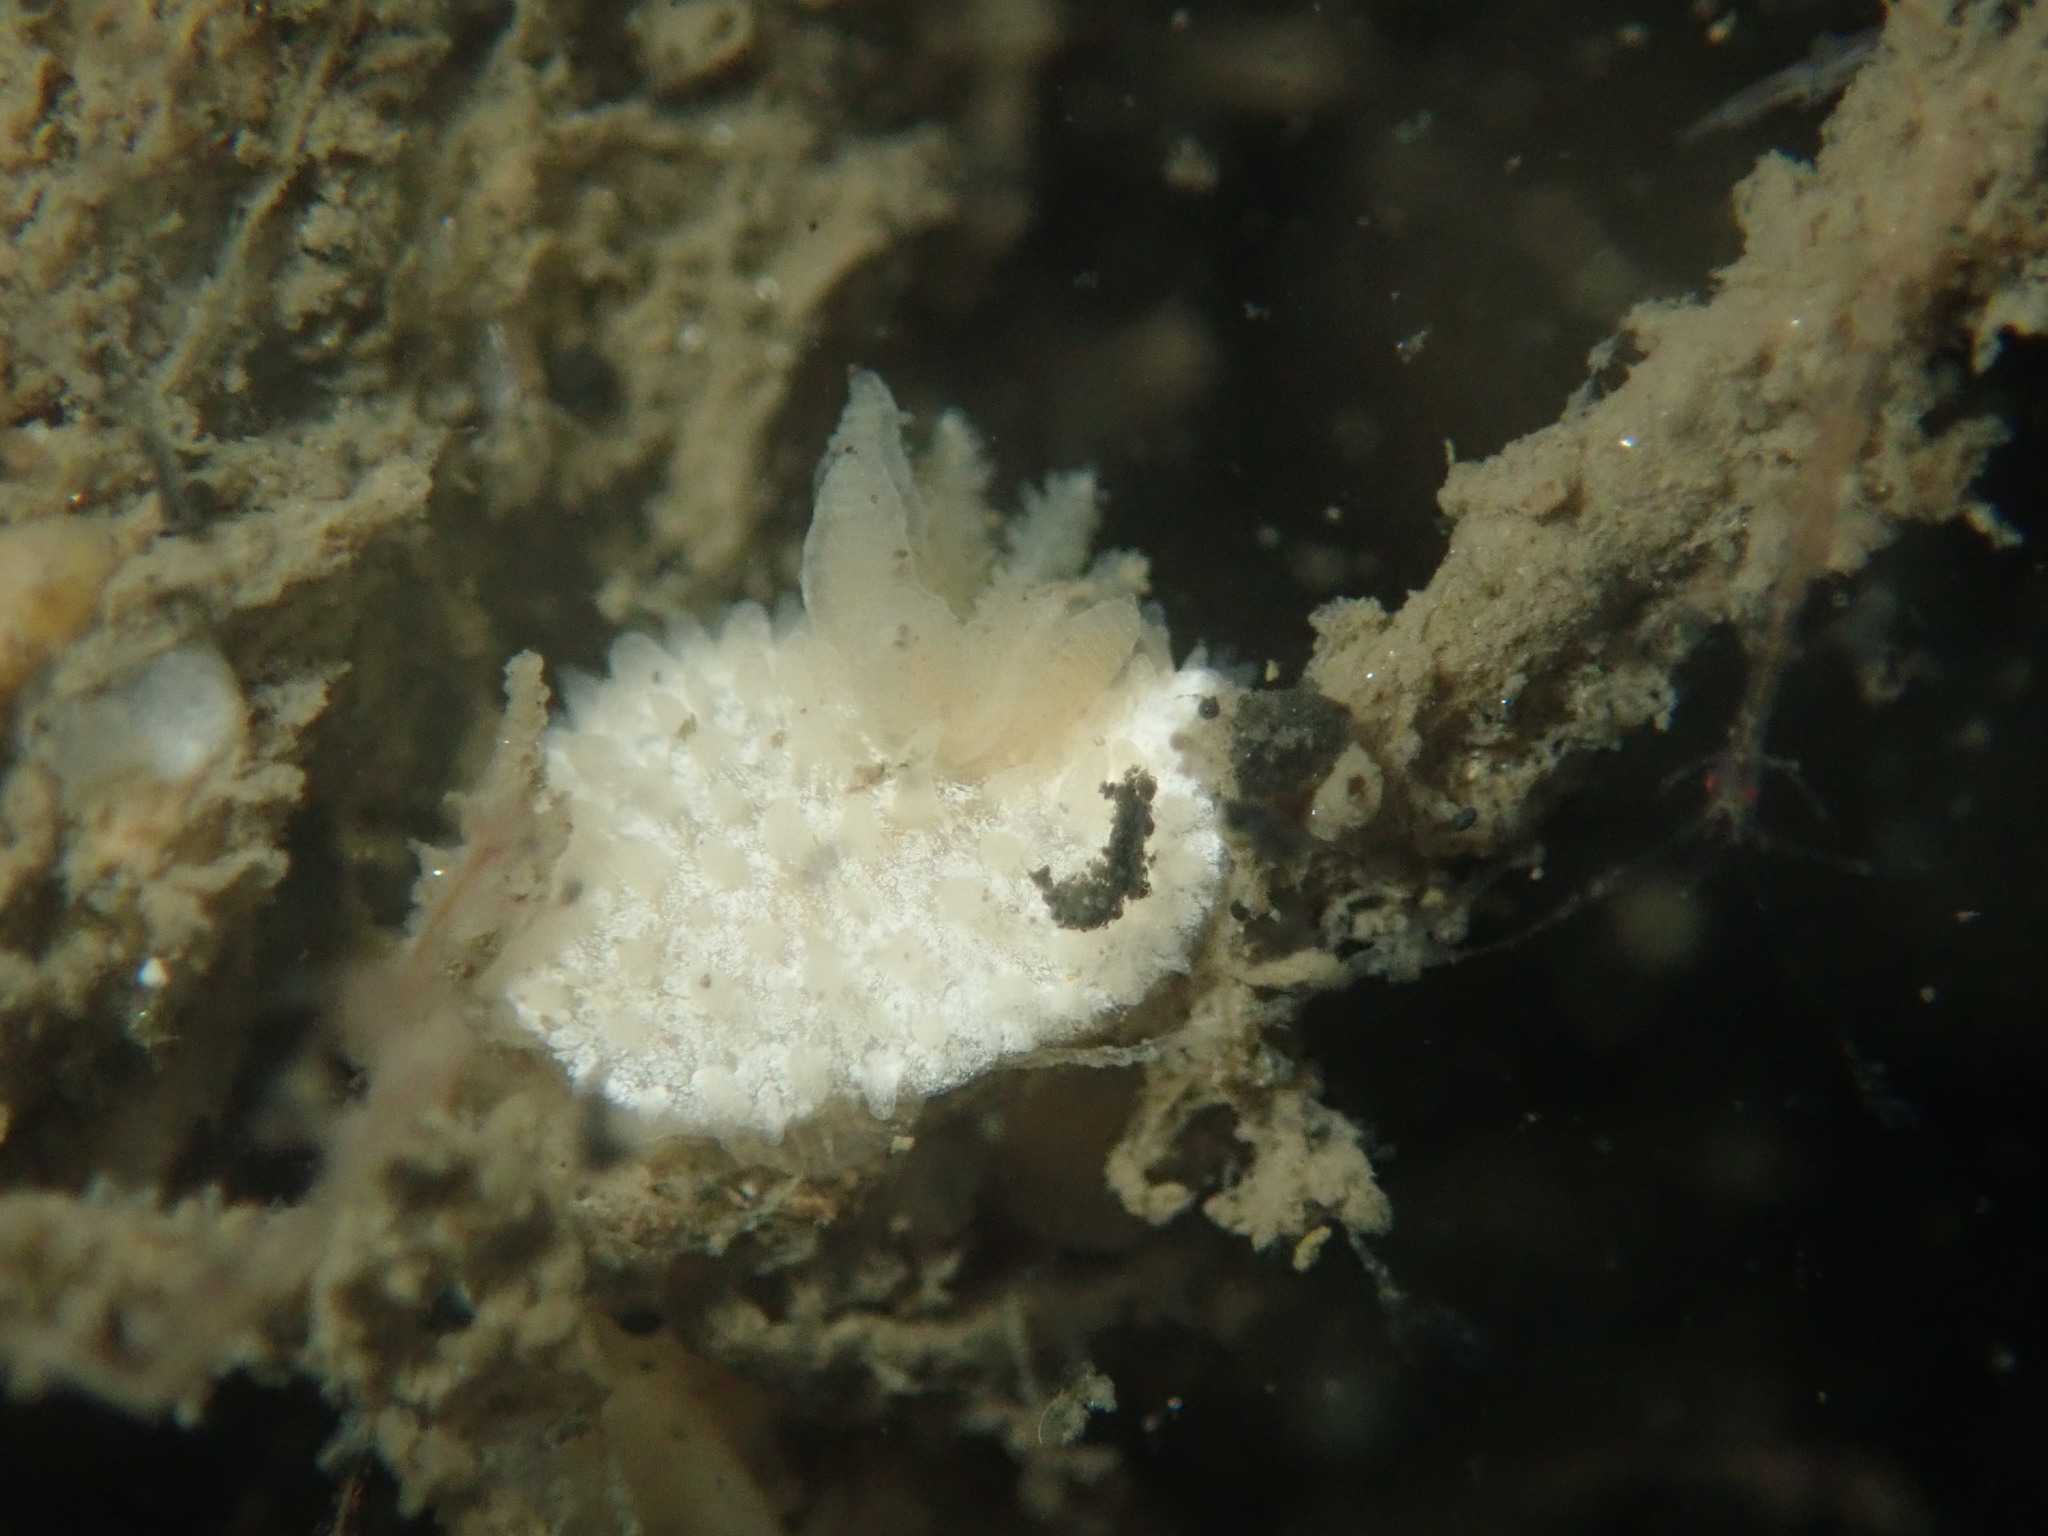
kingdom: Animalia
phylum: Mollusca
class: Gastropoda
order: Nudibranchia
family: Calycidorididae
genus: Diaphorodoris
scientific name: Diaphorodoris lirulatocauda
